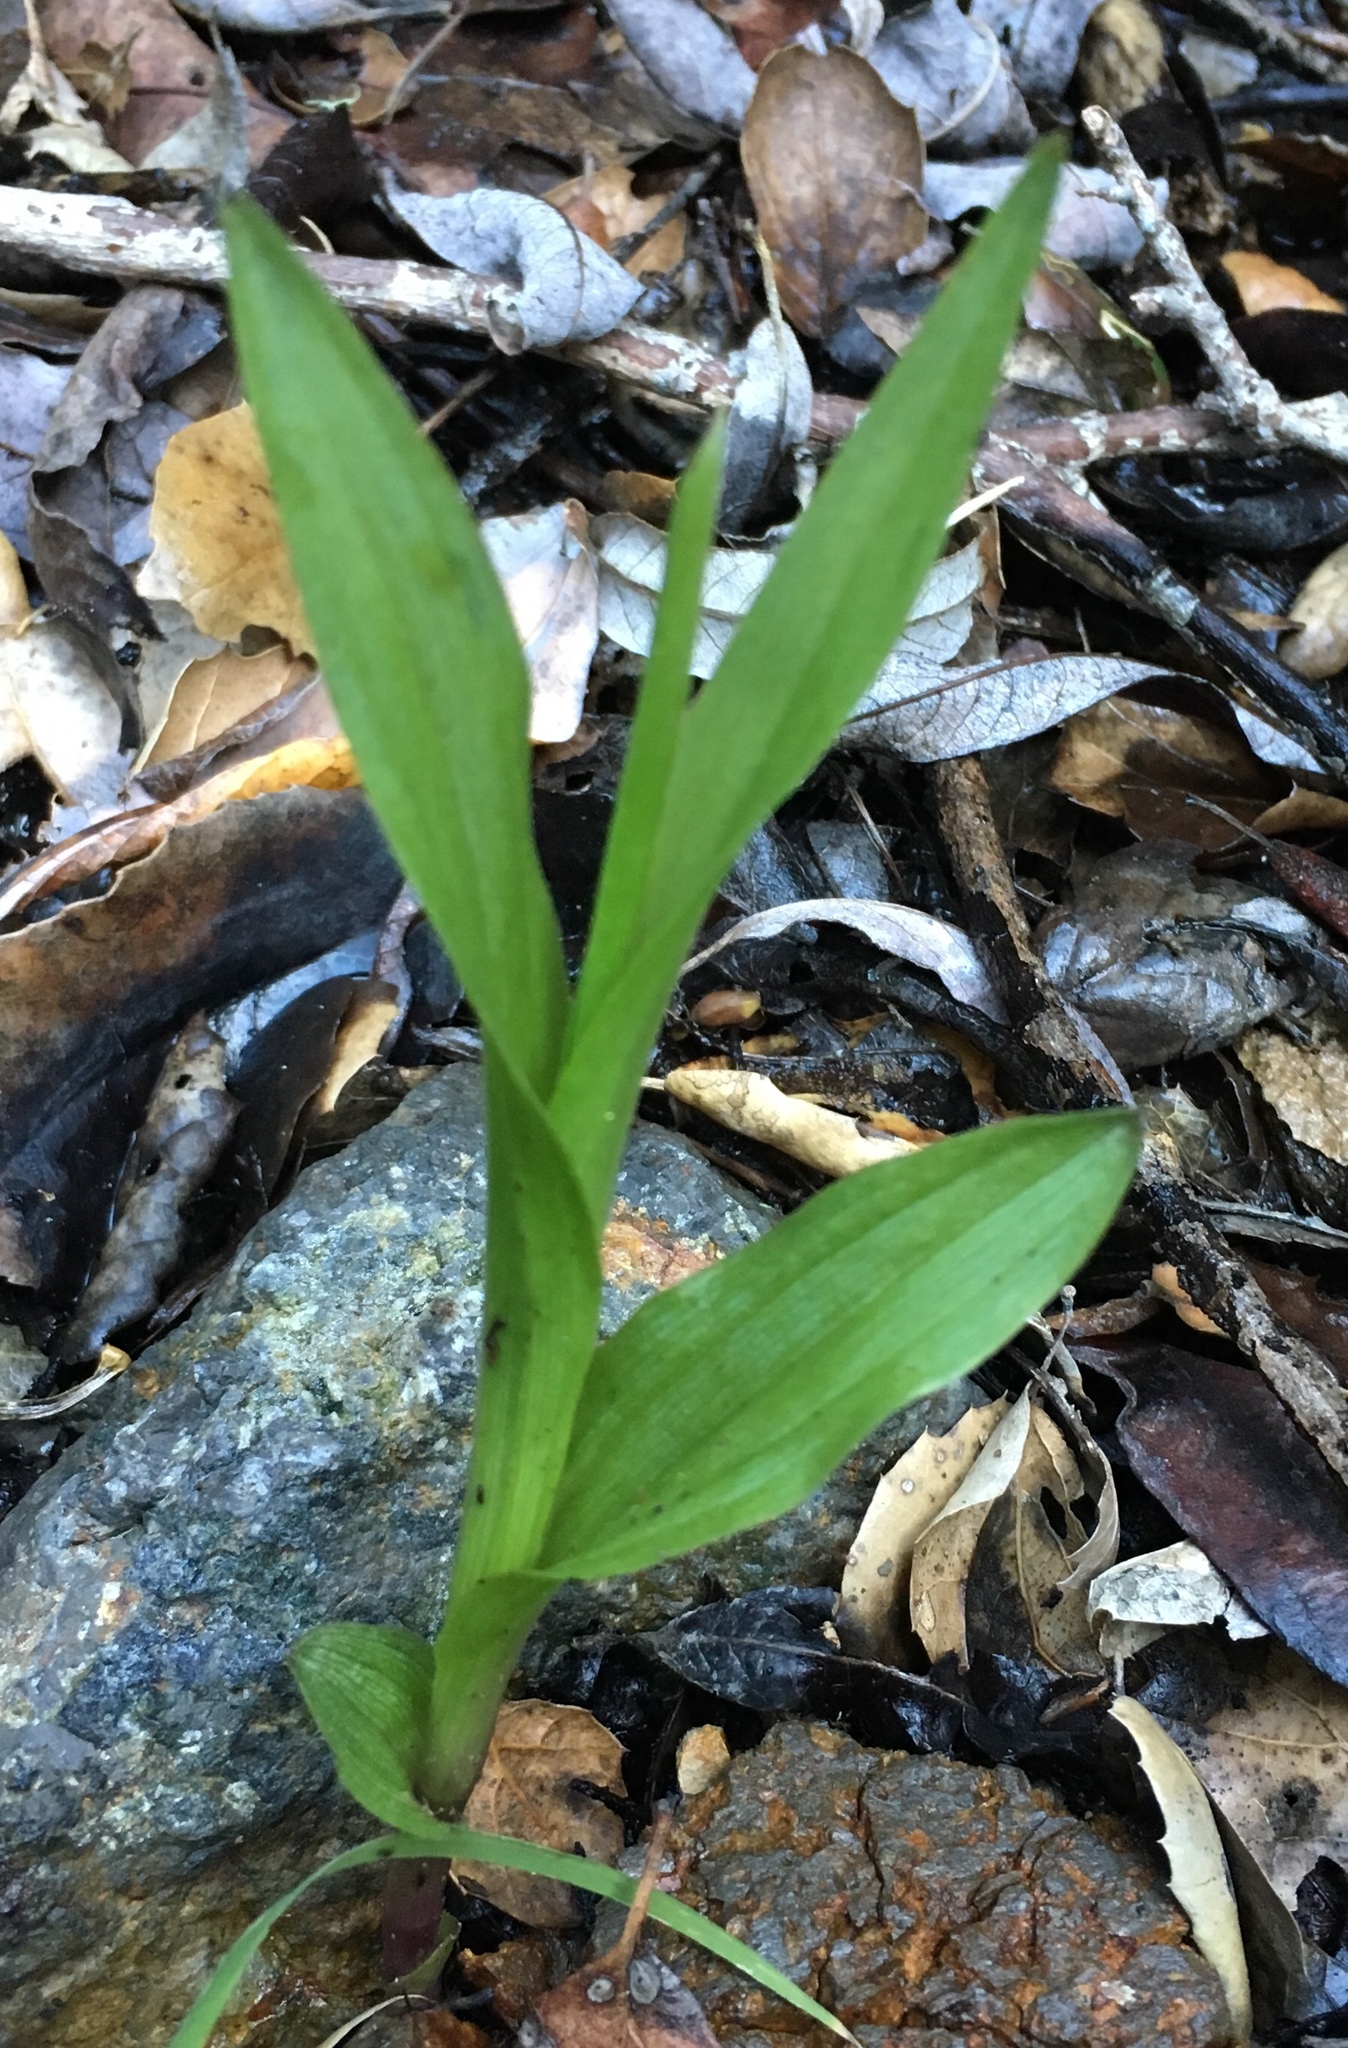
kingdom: Plantae
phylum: Tracheophyta
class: Liliopsida
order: Asparagales
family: Orchidaceae
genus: Epipactis
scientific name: Epipactis gigantea
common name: Chatterbox
